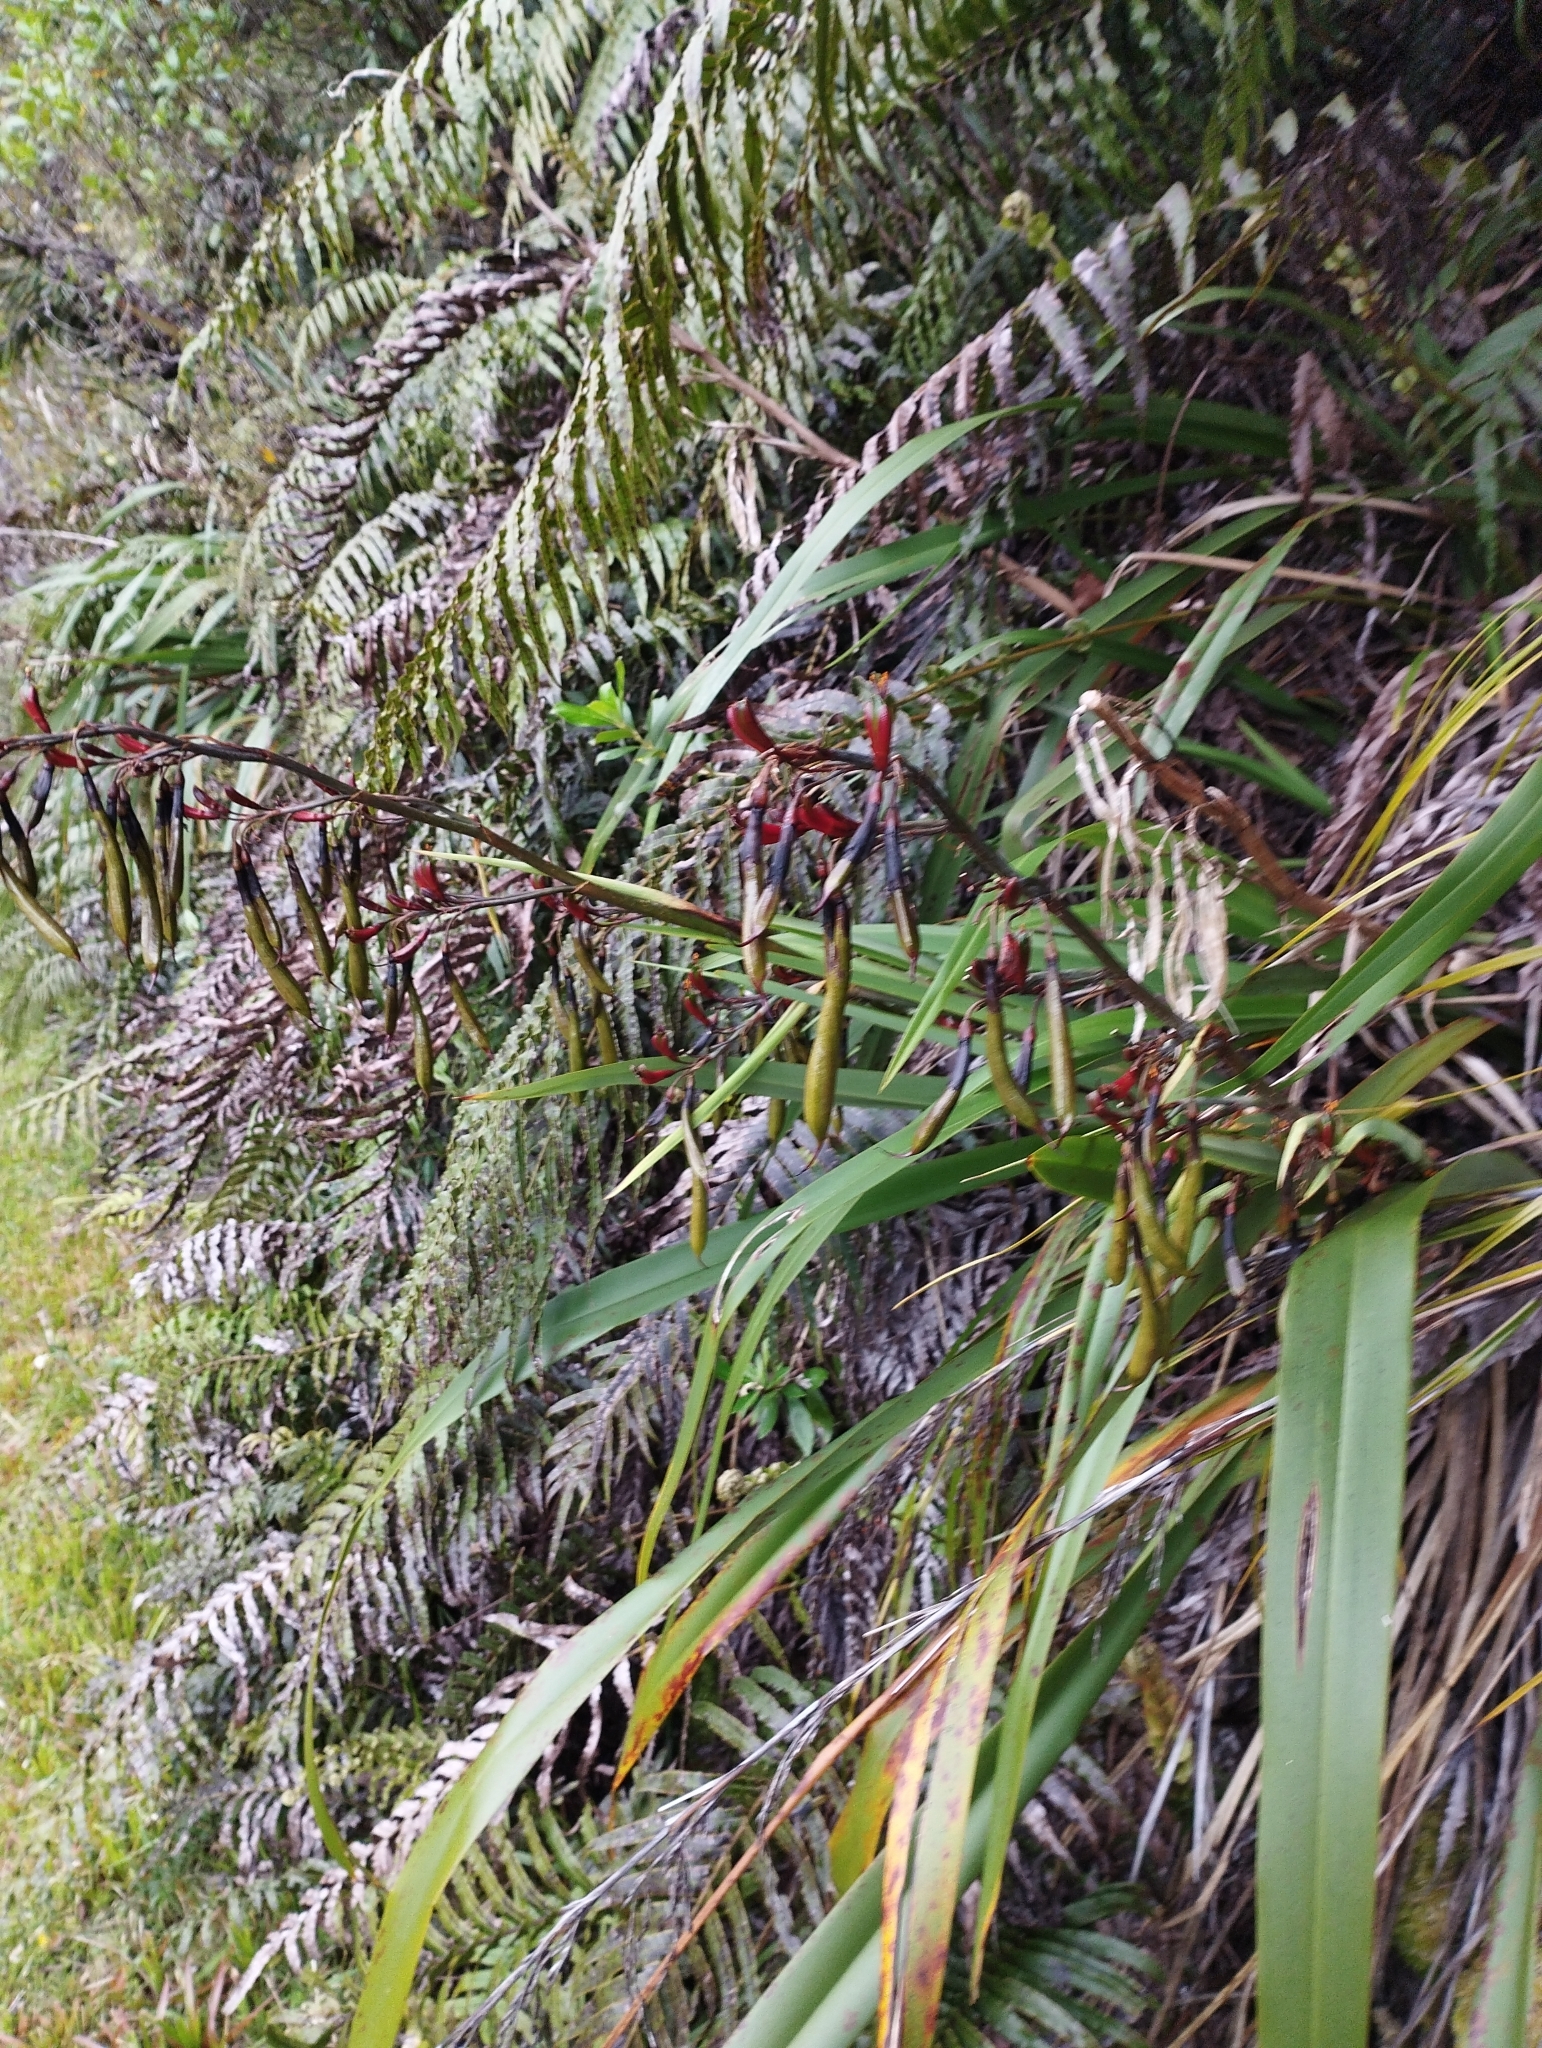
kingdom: Plantae
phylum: Tracheophyta
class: Liliopsida
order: Asparagales
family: Asphodelaceae
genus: Phormium
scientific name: Phormium colensoi
